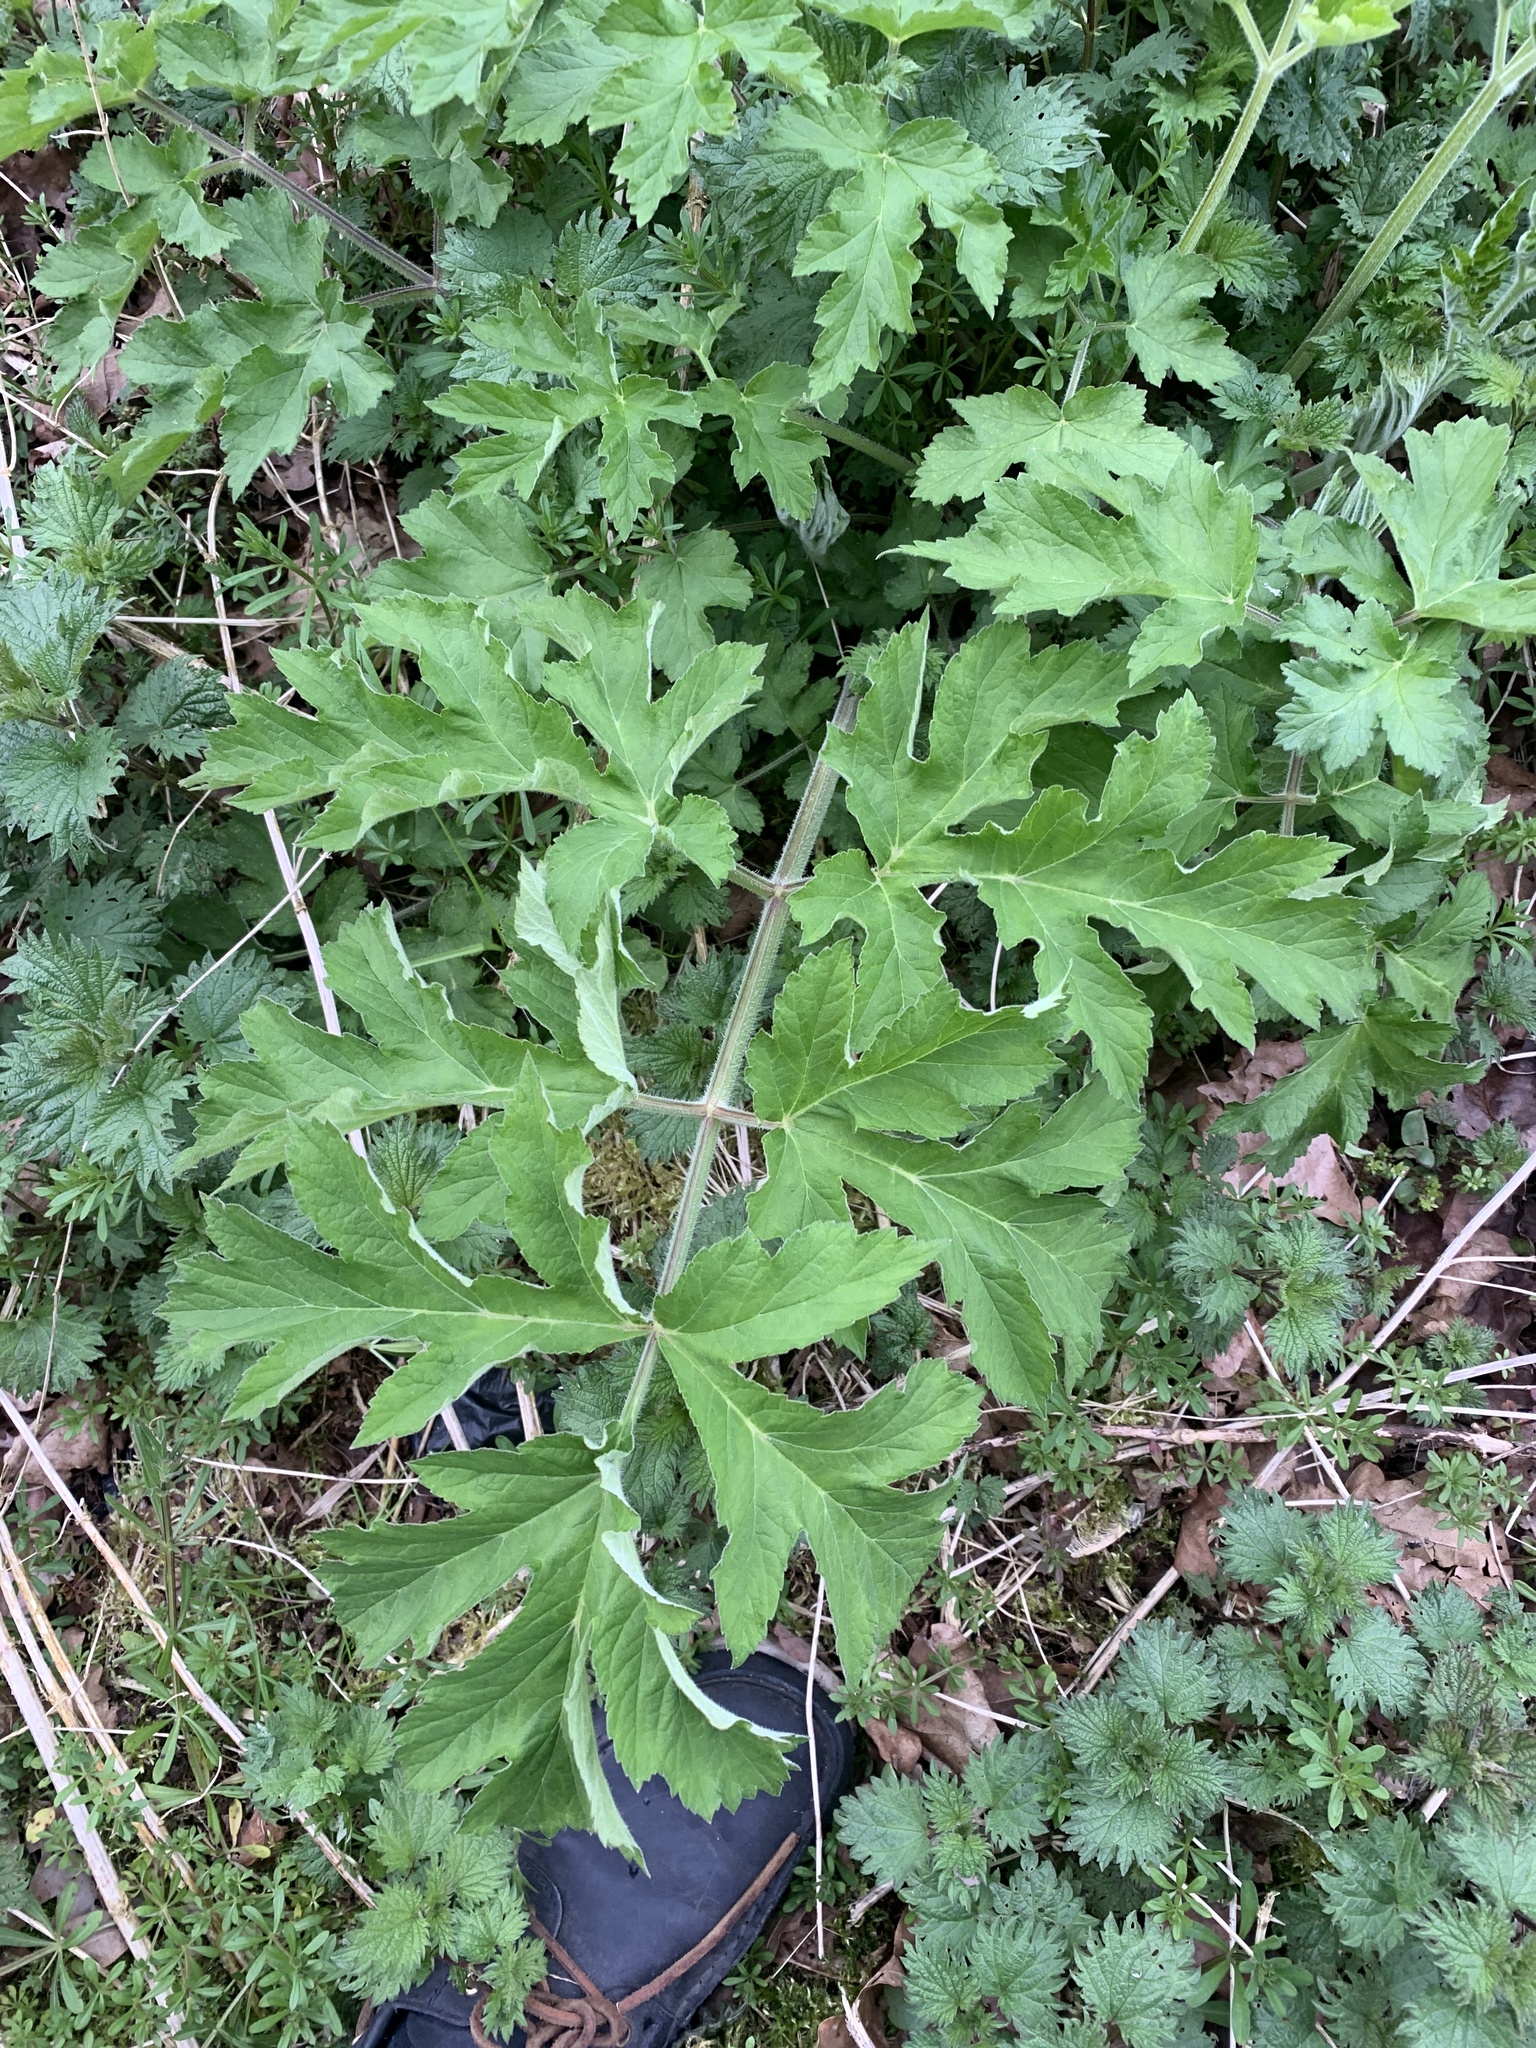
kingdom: Plantae
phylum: Tracheophyta
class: Magnoliopsida
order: Apiales
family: Apiaceae
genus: Heracleum
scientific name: Heracleum sphondylium
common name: Hogweed
